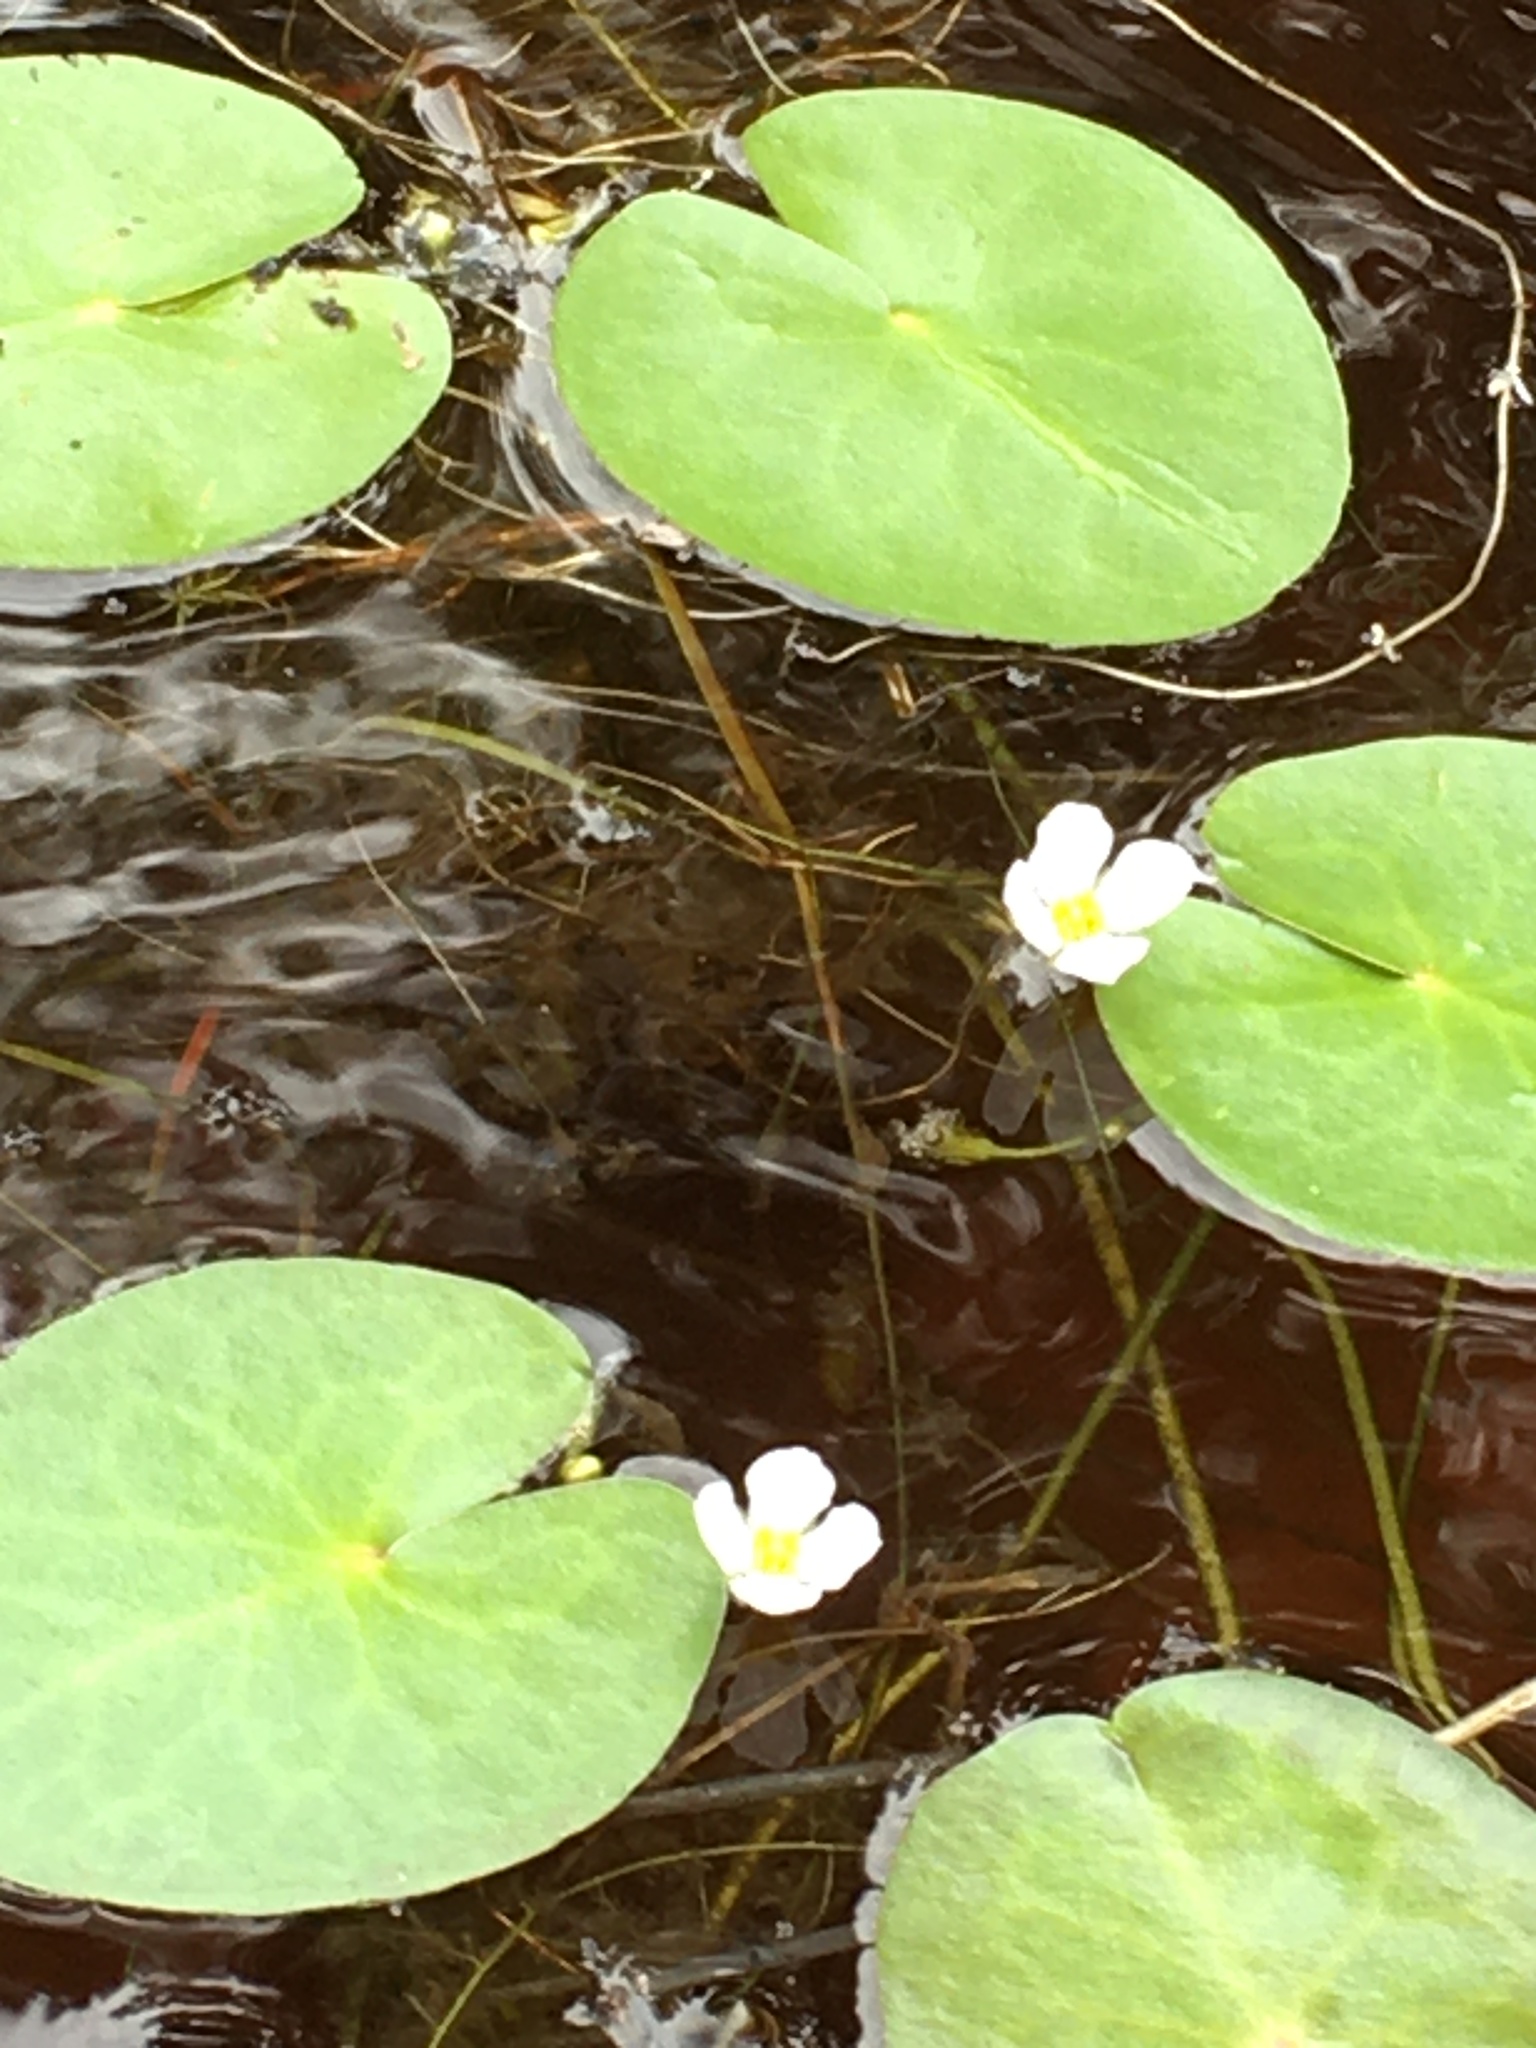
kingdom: Plantae
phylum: Tracheophyta
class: Magnoliopsida
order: Nymphaeales
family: Cabombaceae
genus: Cabomba
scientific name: Cabomba caroliniana
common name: Fanwort
